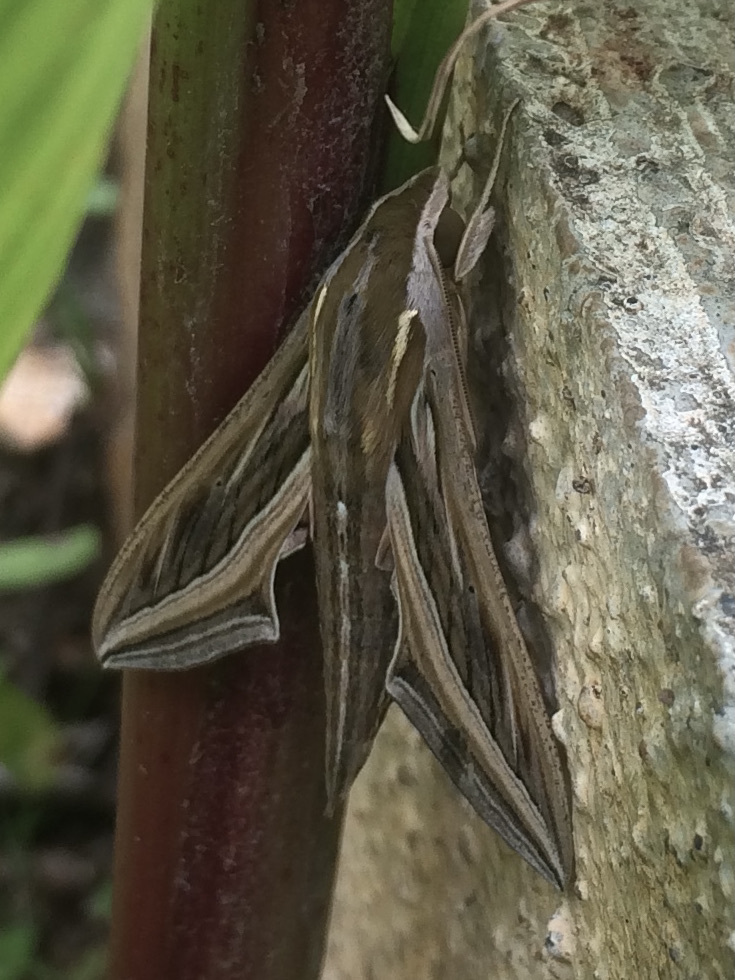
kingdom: Animalia
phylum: Arthropoda
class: Insecta
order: Lepidoptera
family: Sphingidae
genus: Hippotion
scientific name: Hippotion celerio
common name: Silver-striped hawk-moth
